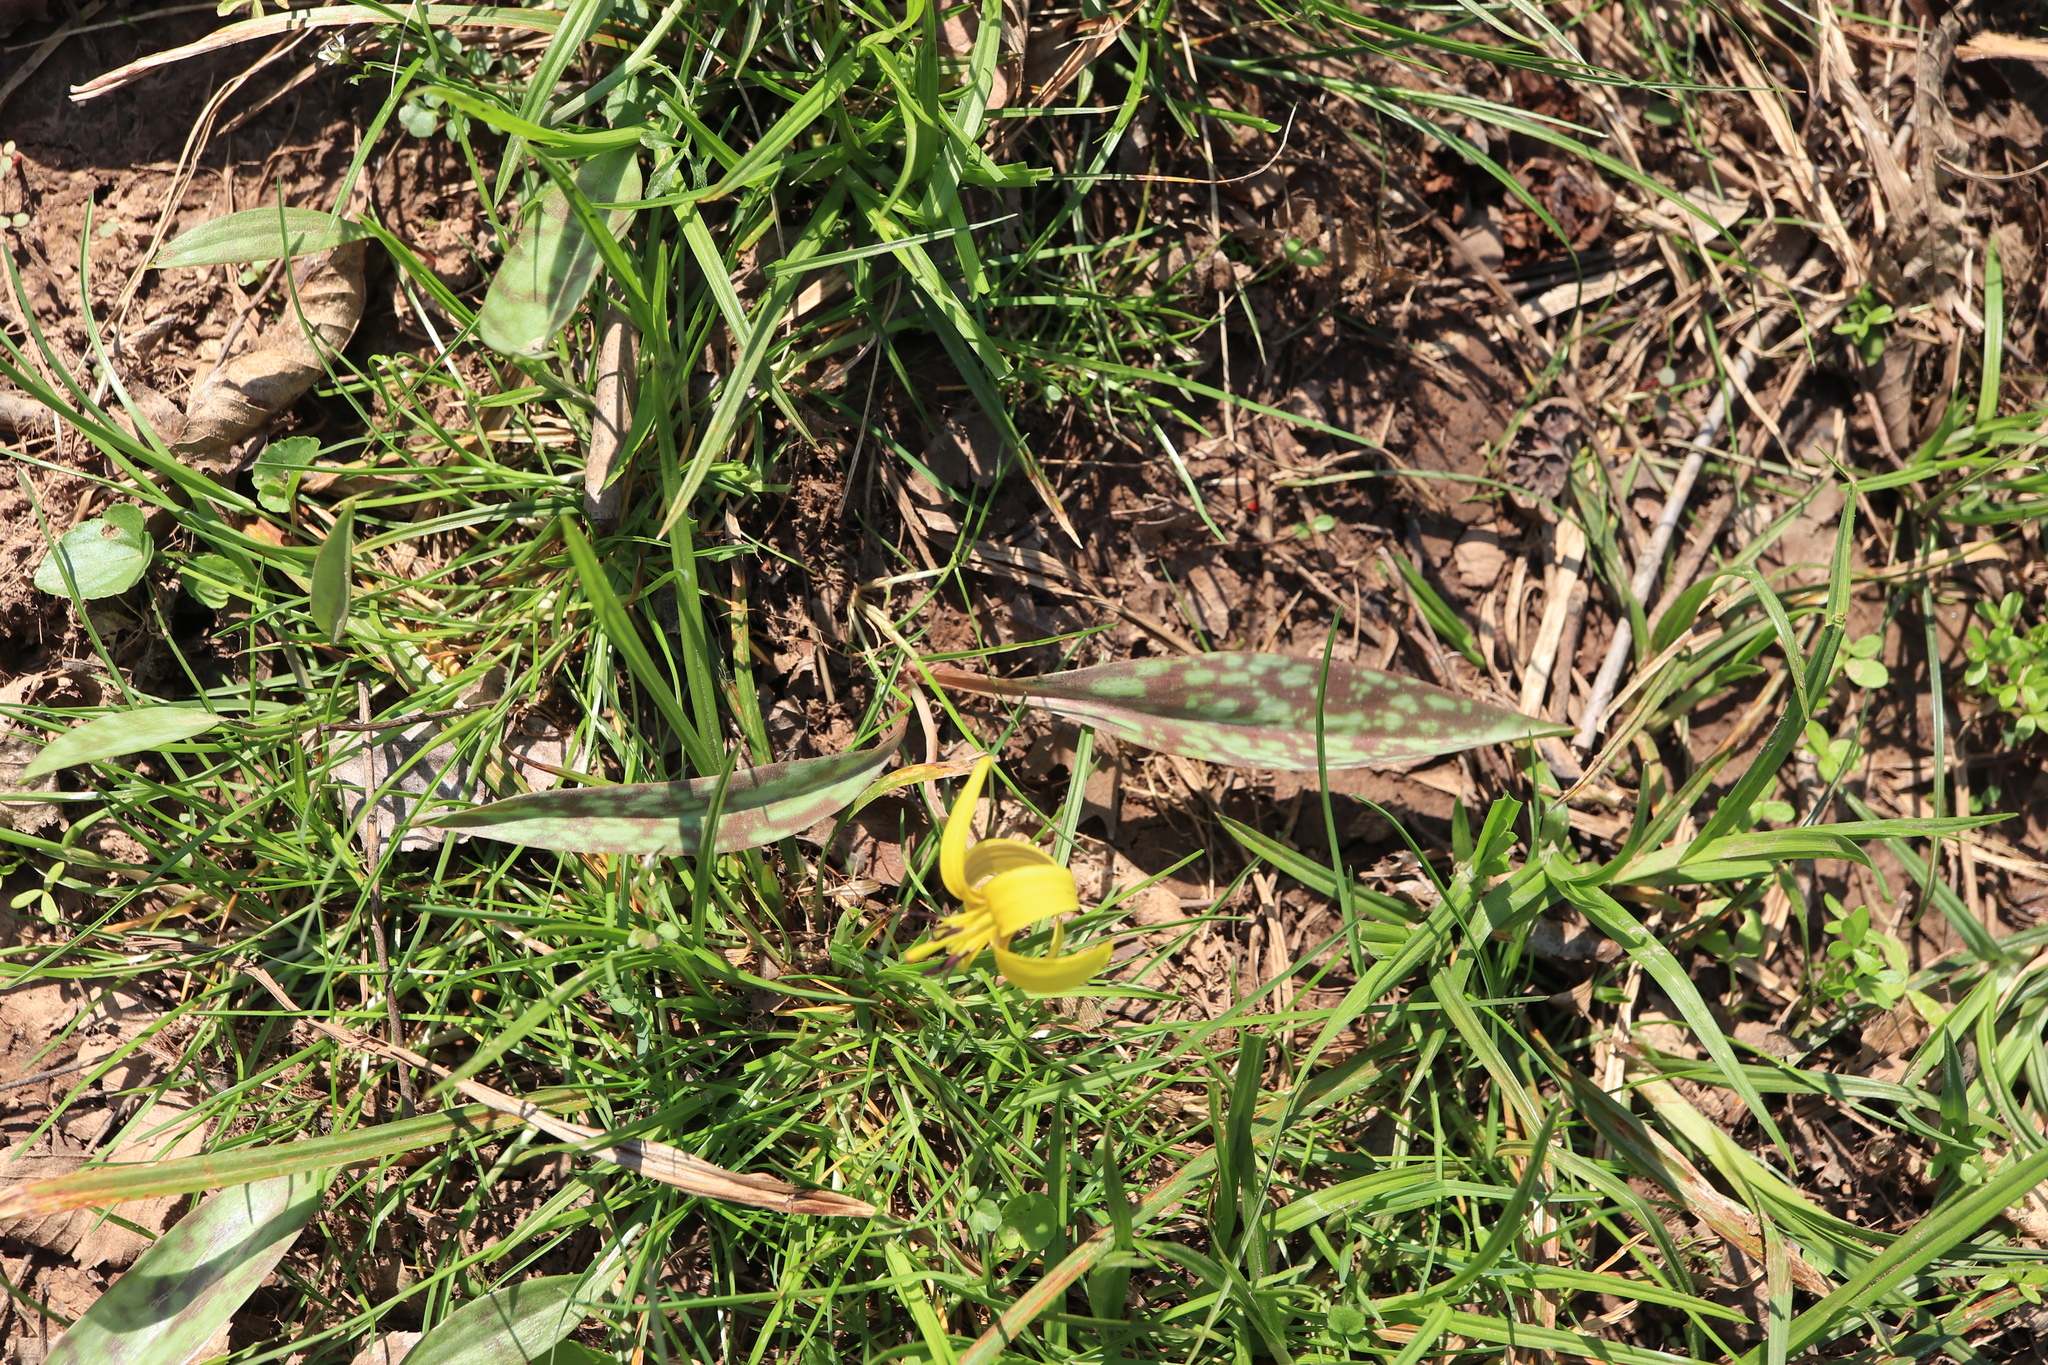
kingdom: Plantae
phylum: Tracheophyta
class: Liliopsida
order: Liliales
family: Liliaceae
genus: Erythronium
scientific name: Erythronium americanum
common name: Yellow adder's-tongue
